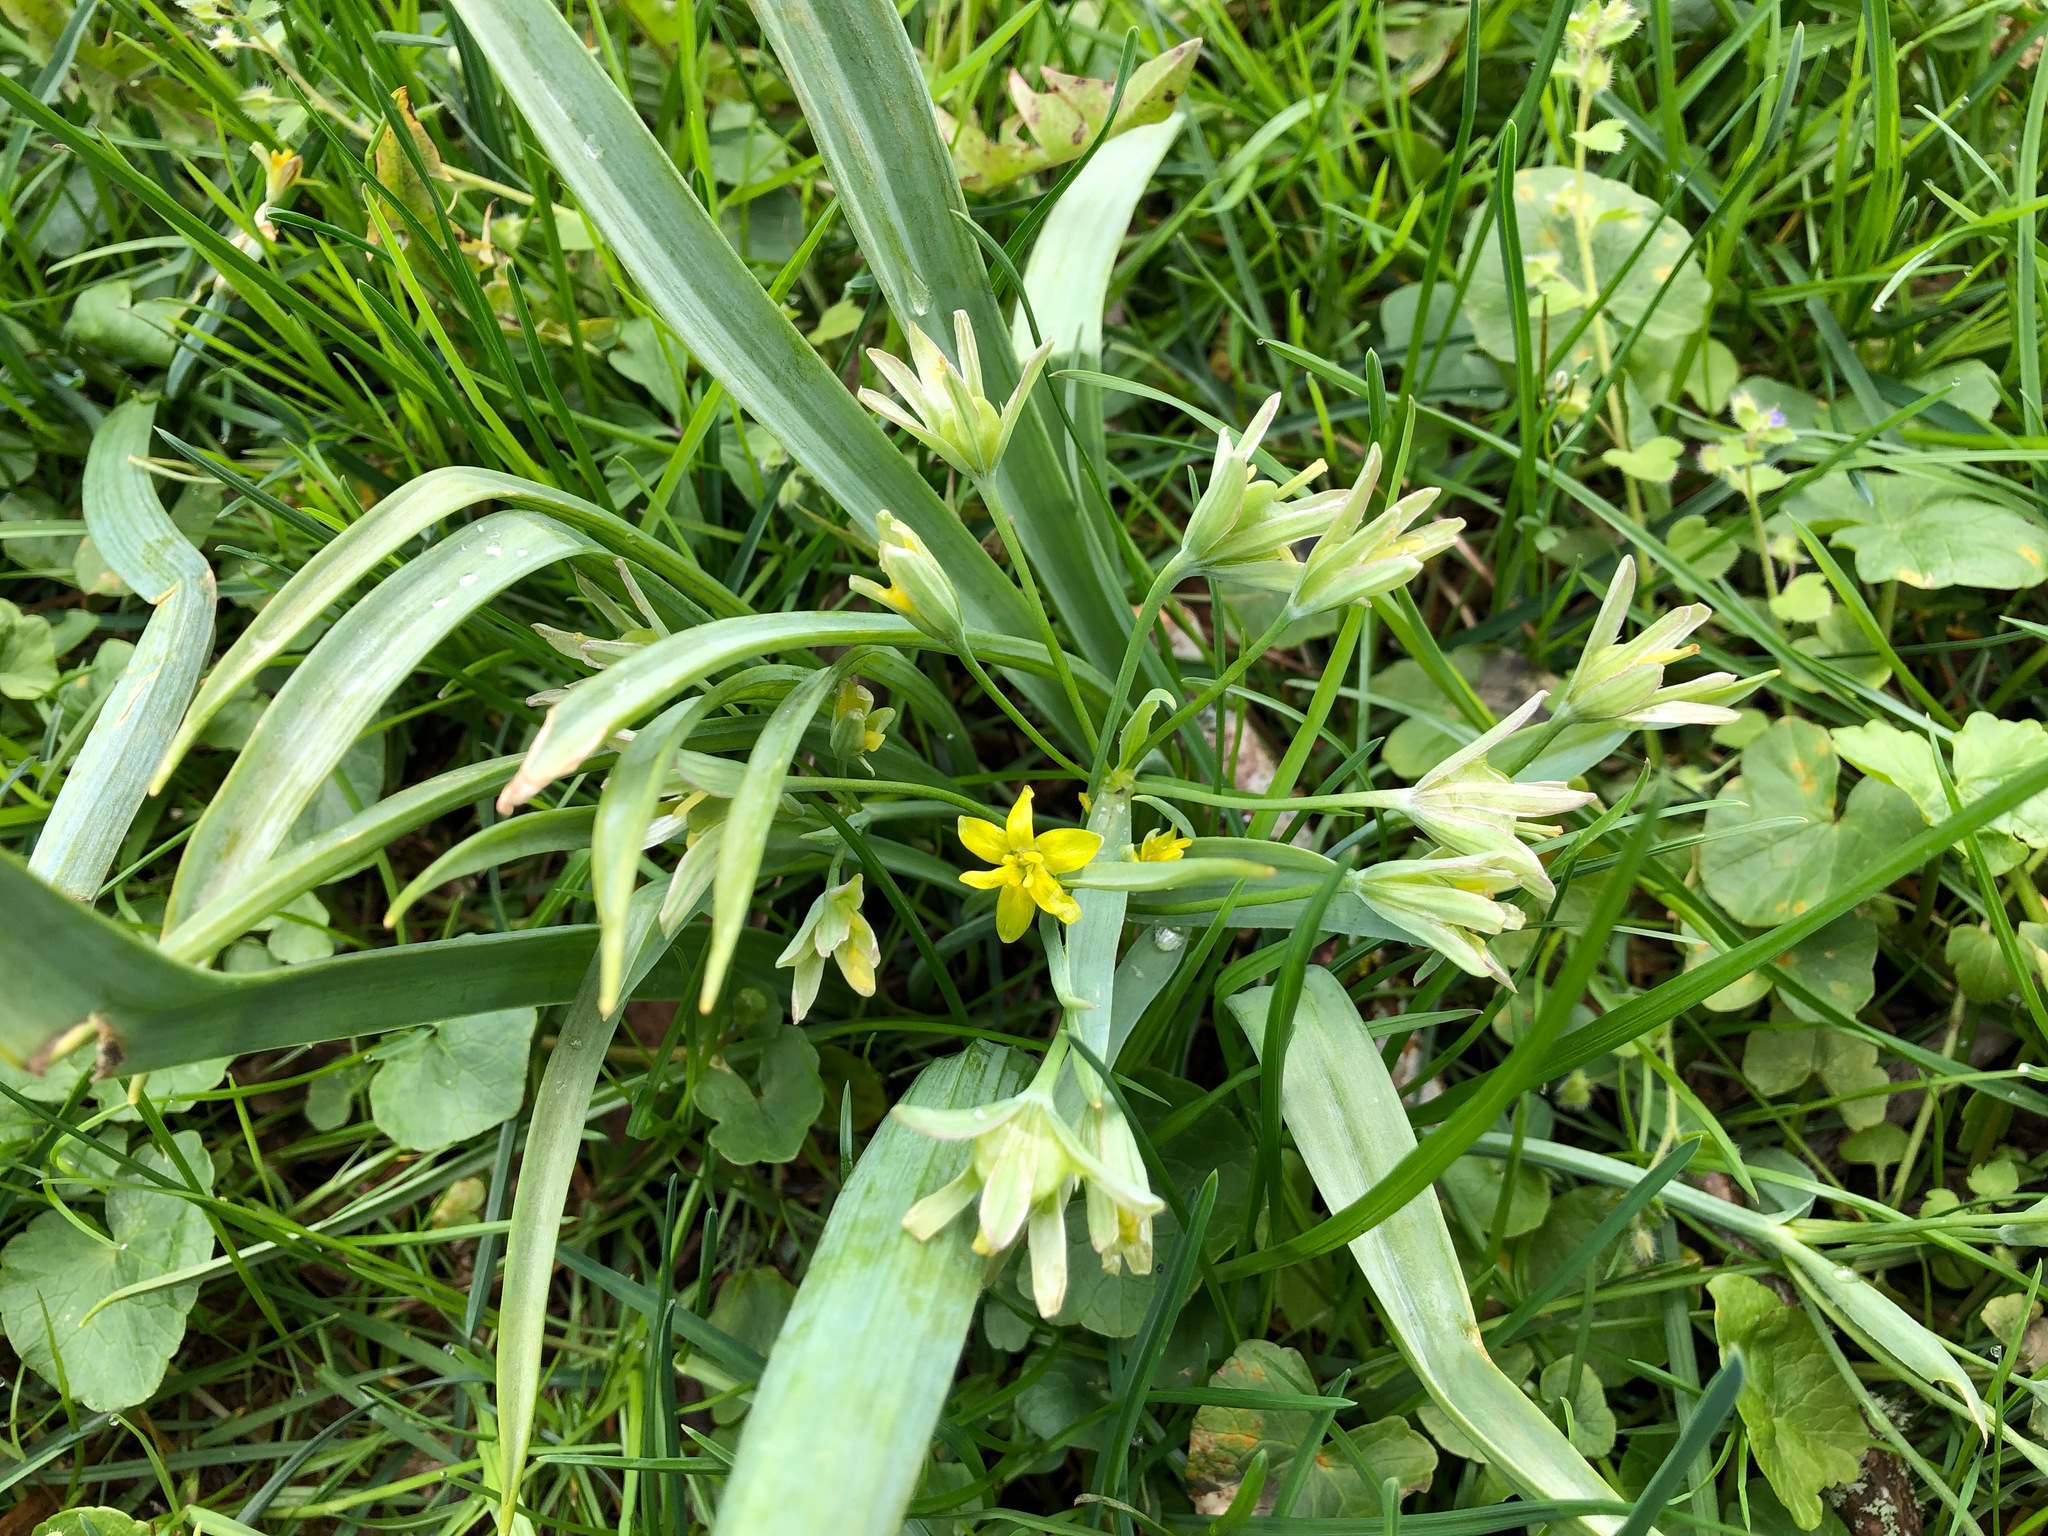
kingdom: Plantae
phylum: Tracheophyta
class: Liliopsida
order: Liliales
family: Liliaceae
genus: Gagea
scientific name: Gagea lutea
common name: Yellow star-of-bethlehem
